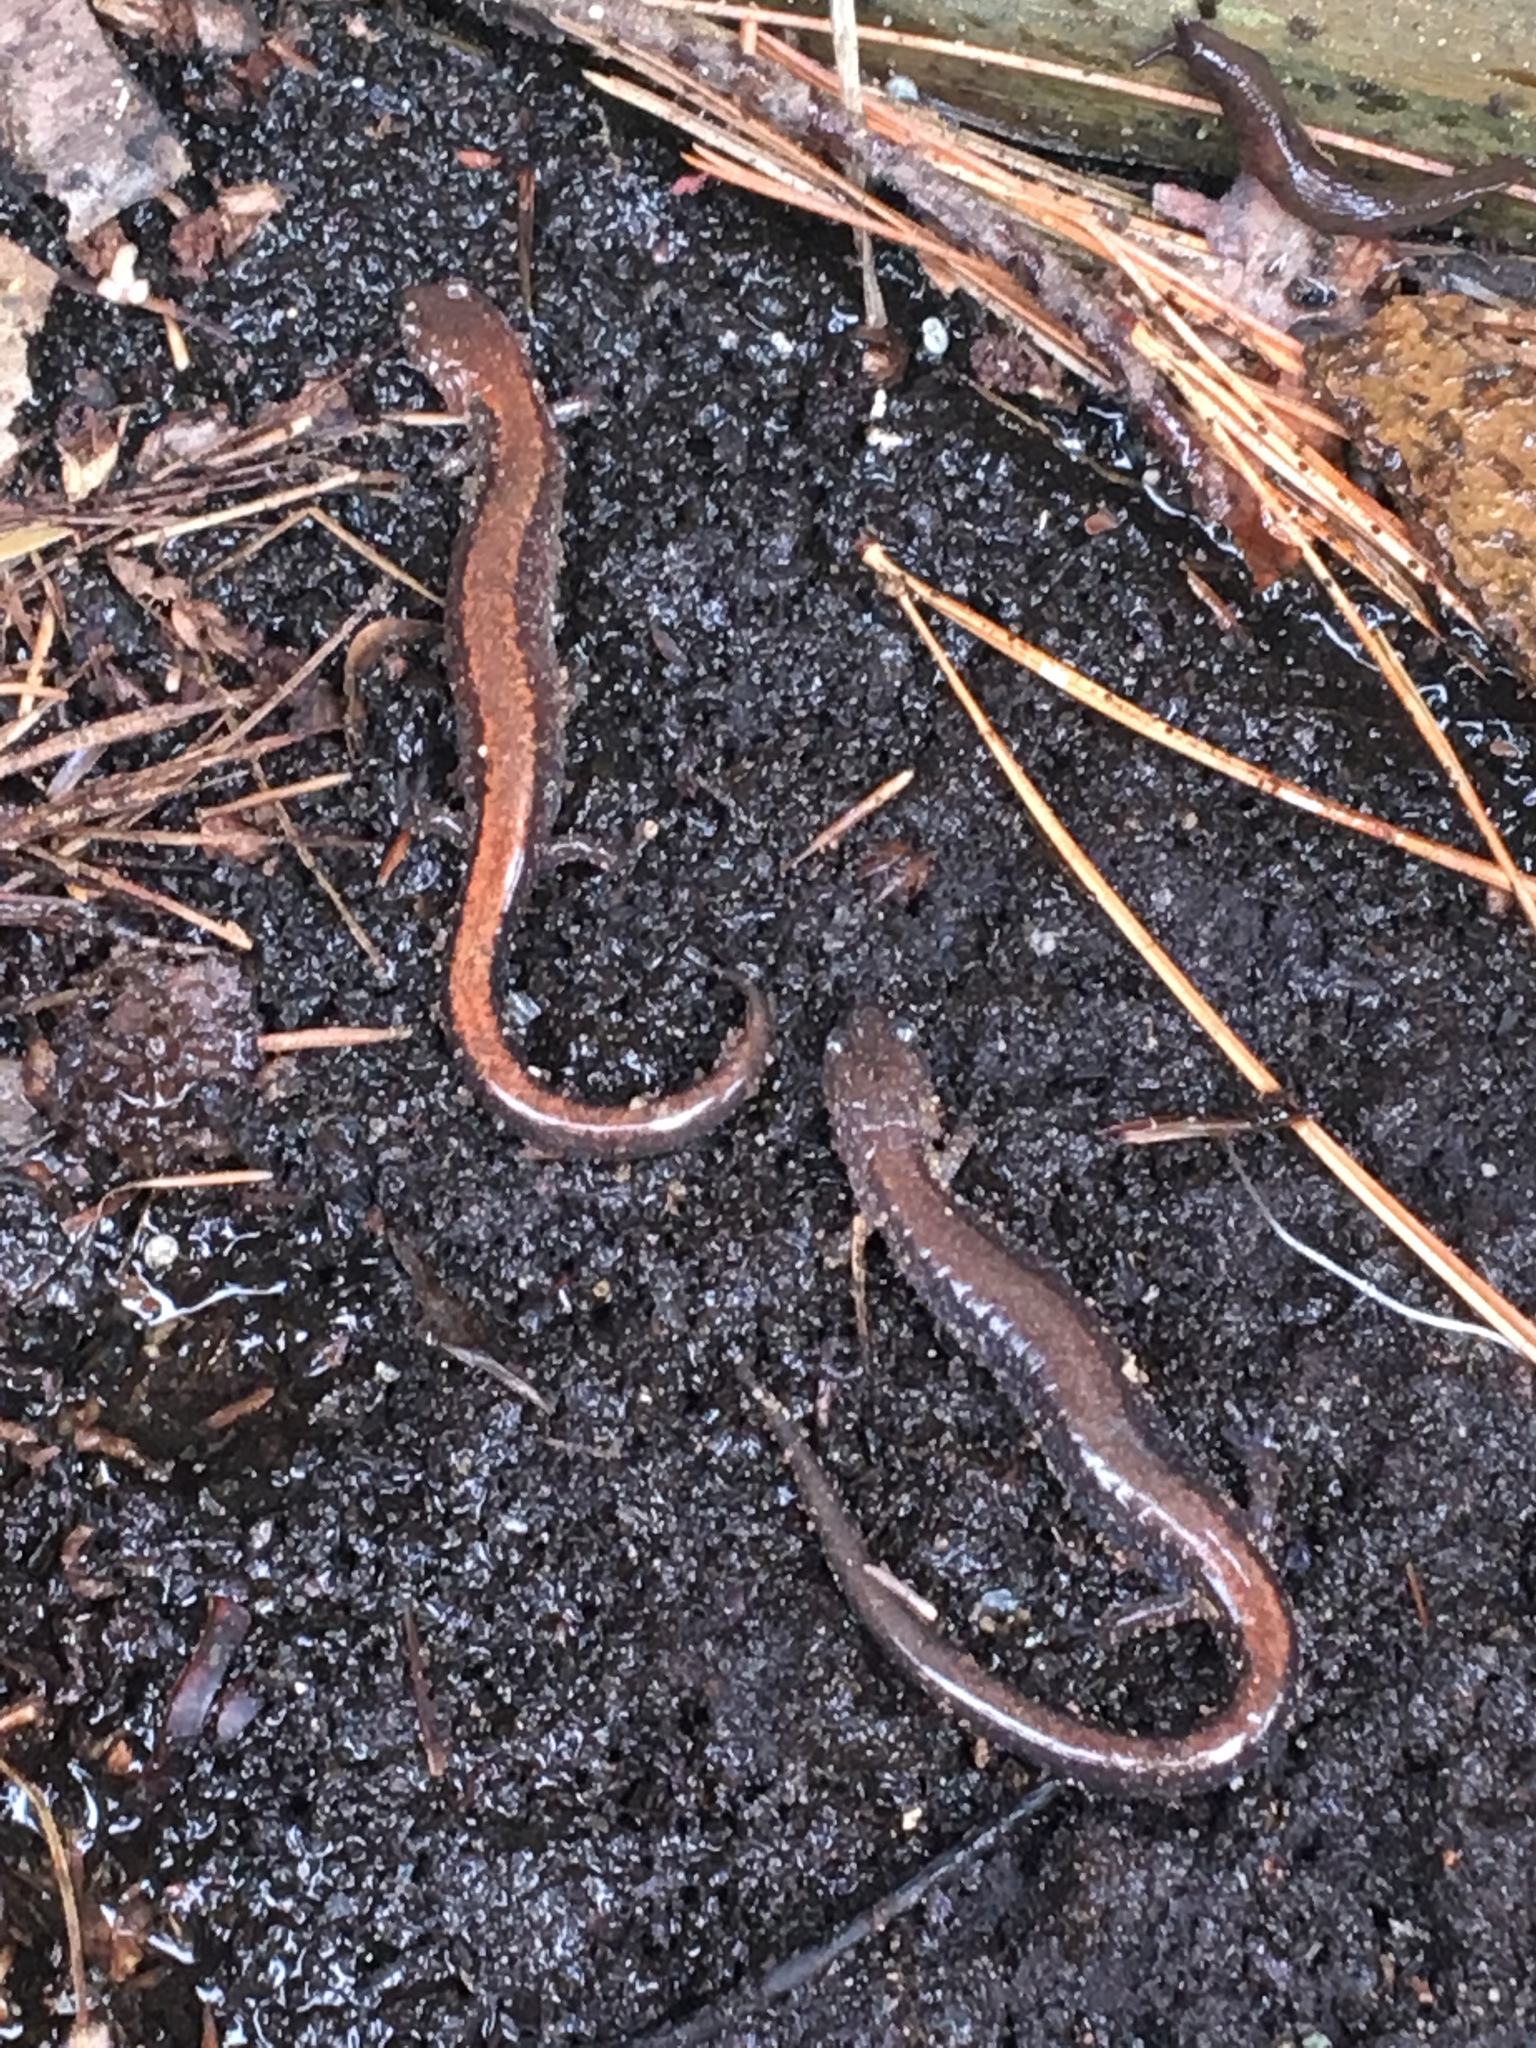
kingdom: Animalia
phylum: Chordata
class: Amphibia
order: Caudata
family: Plethodontidae
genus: Plethodon
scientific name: Plethodon cinereus
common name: Redback salamander
